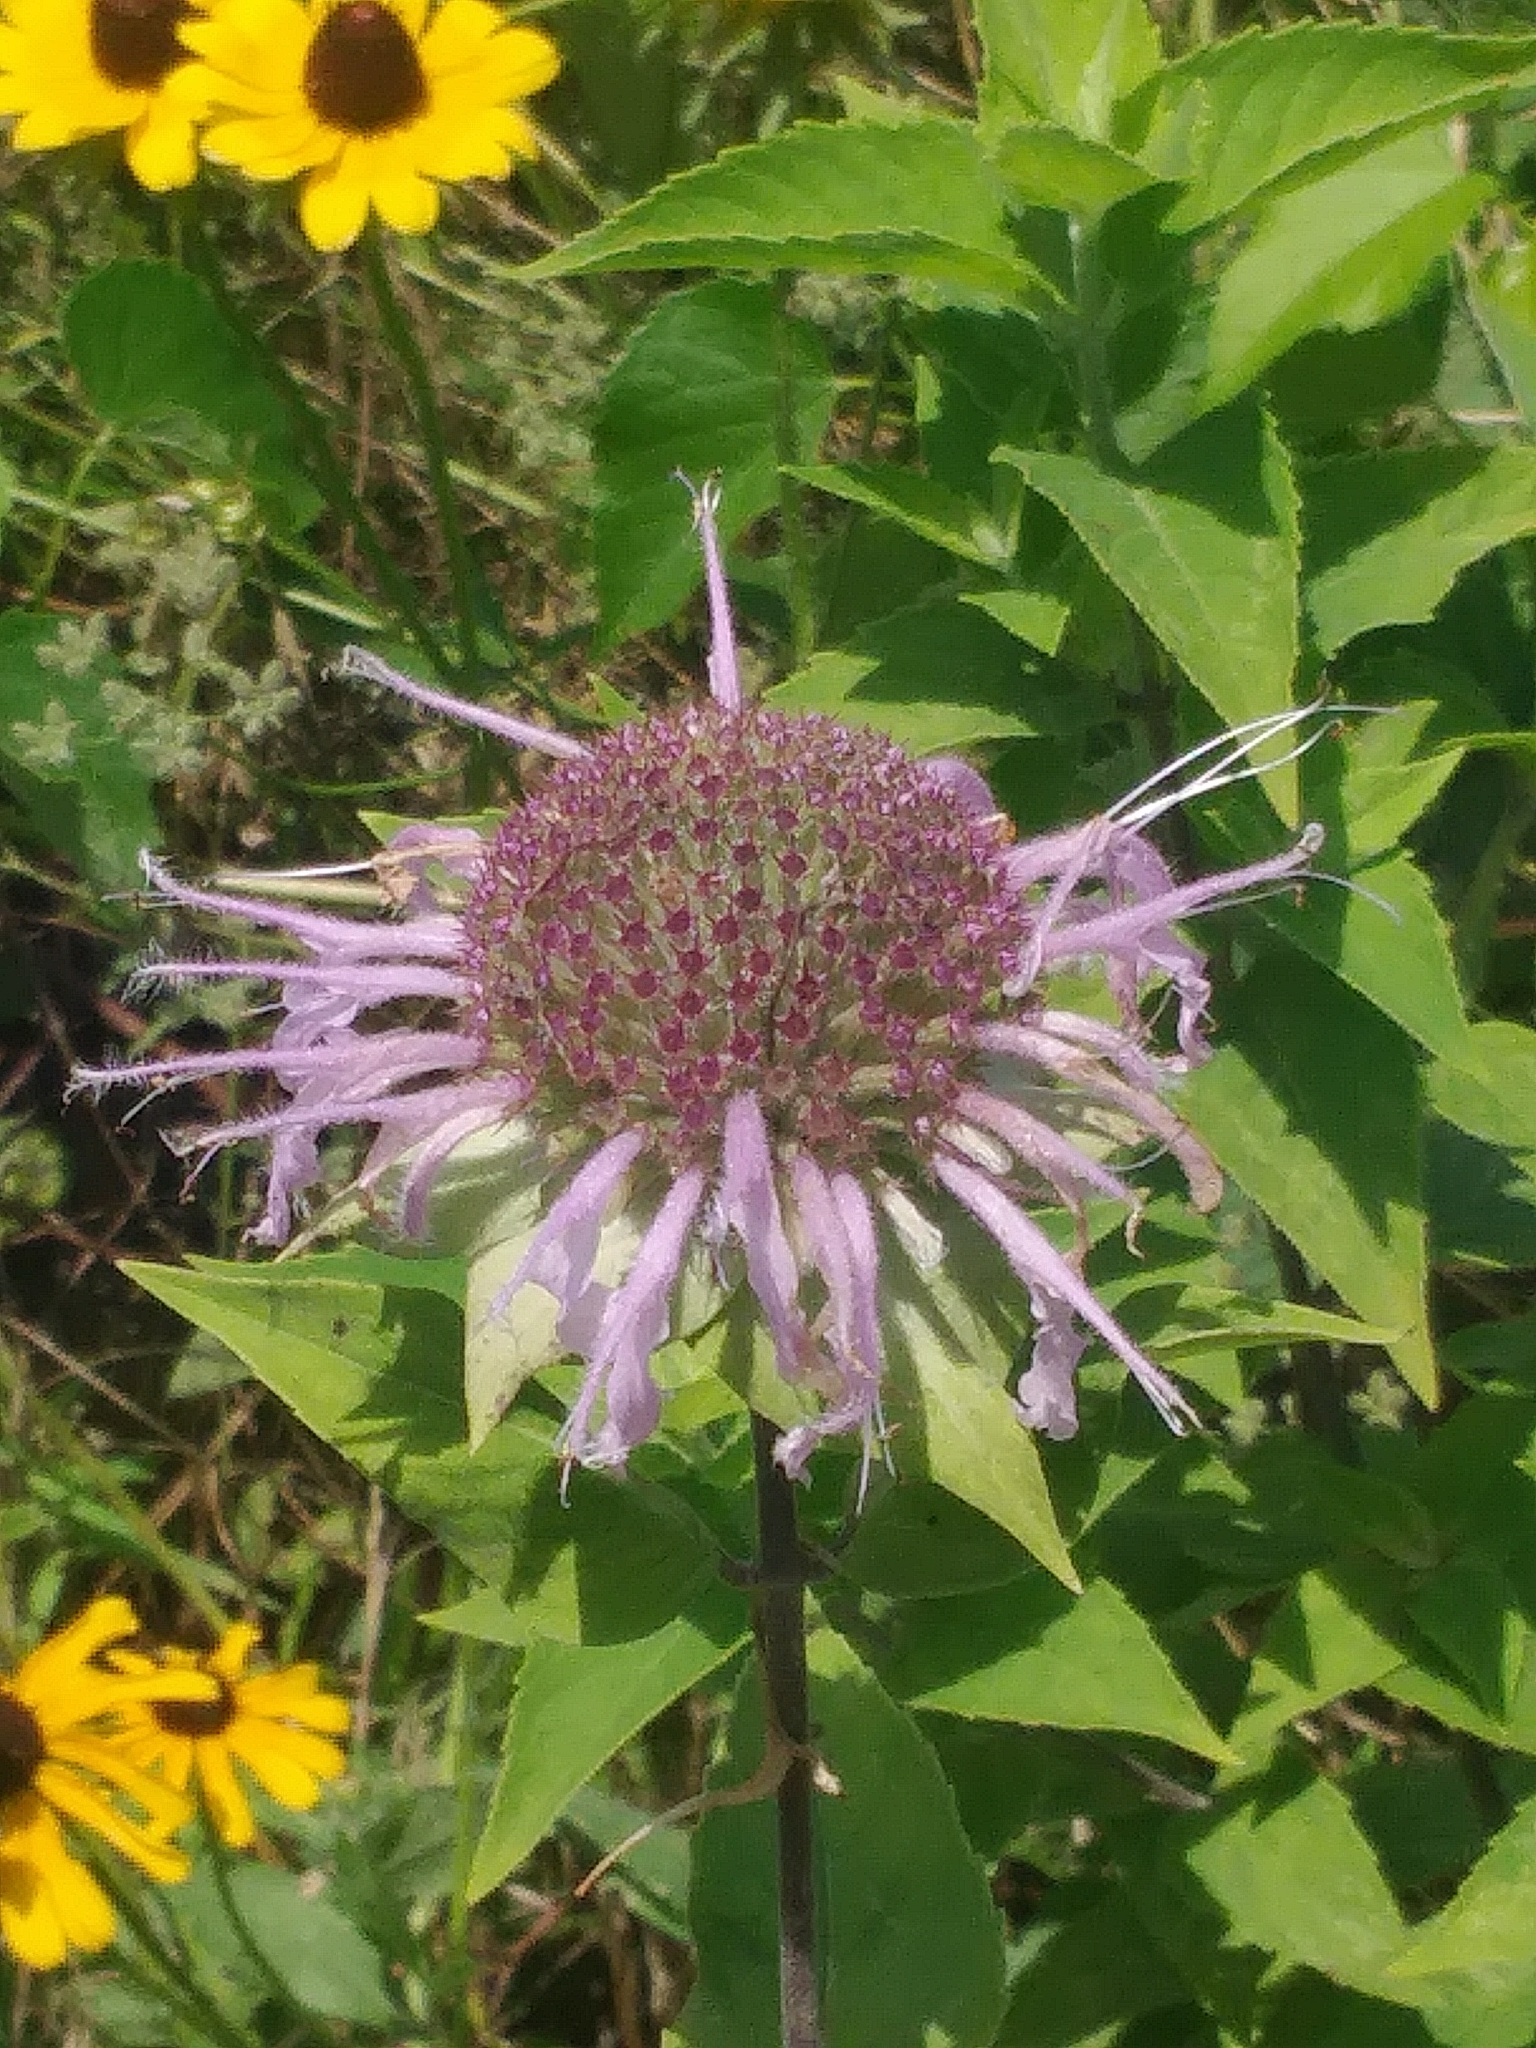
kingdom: Plantae
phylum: Tracheophyta
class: Magnoliopsida
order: Lamiales
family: Lamiaceae
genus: Monarda
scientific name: Monarda fistulosa
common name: Purple beebalm
